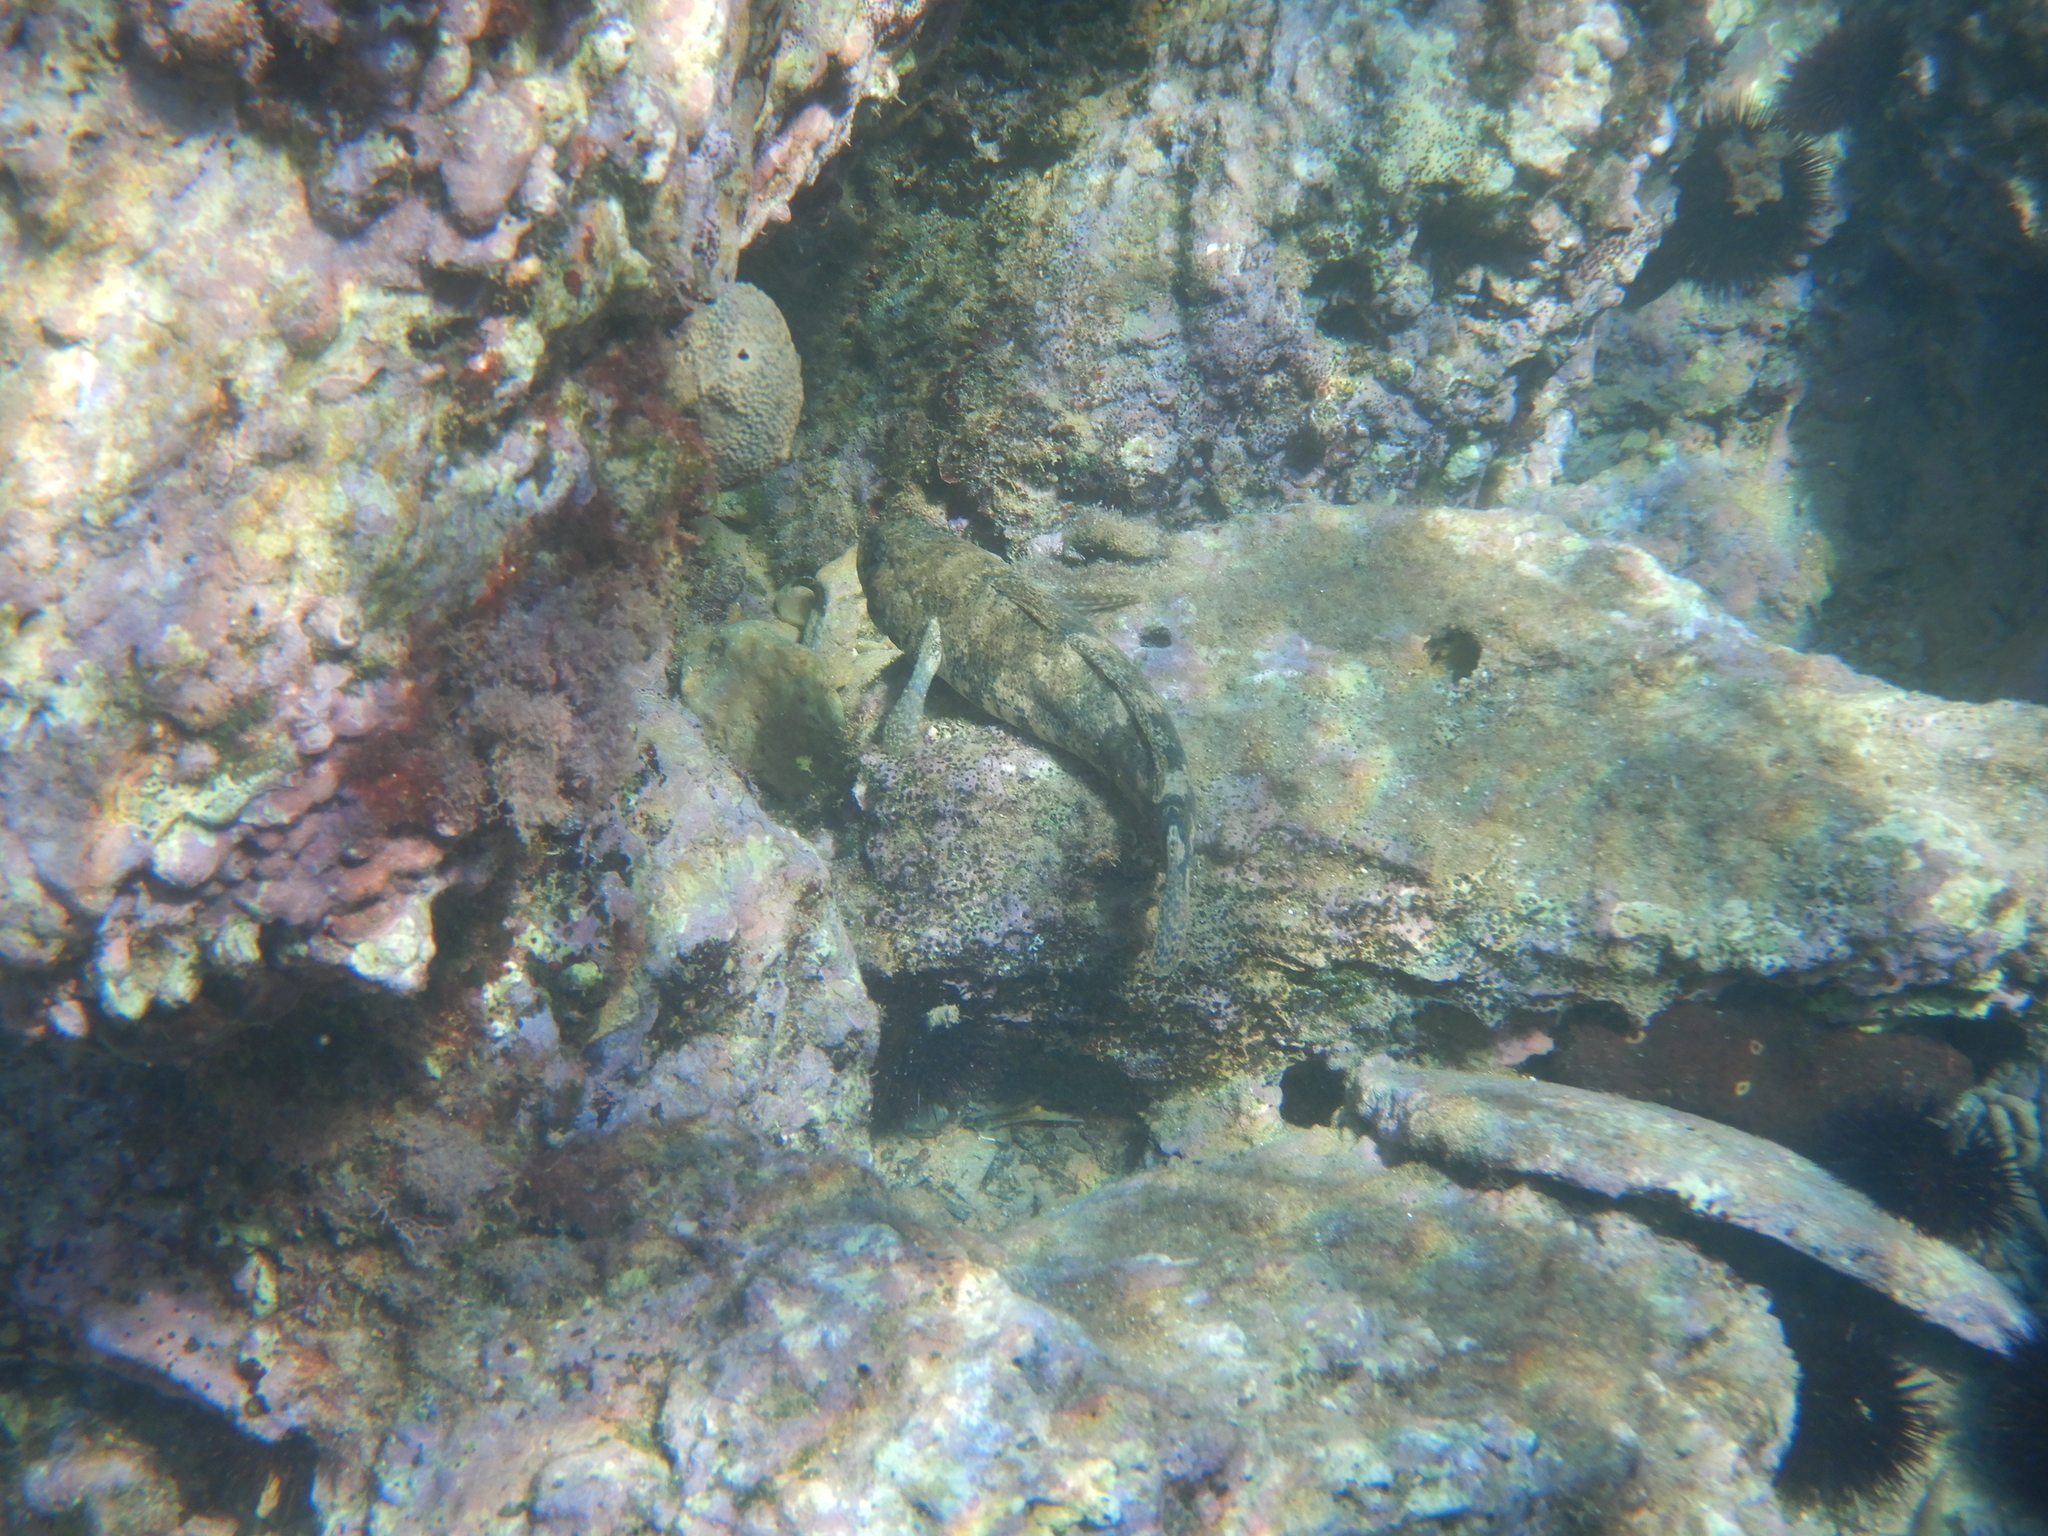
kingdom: Animalia
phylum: Chordata
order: Perciformes
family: Gobiidae
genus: Gobius
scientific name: Gobius cobitis
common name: Giant goby
